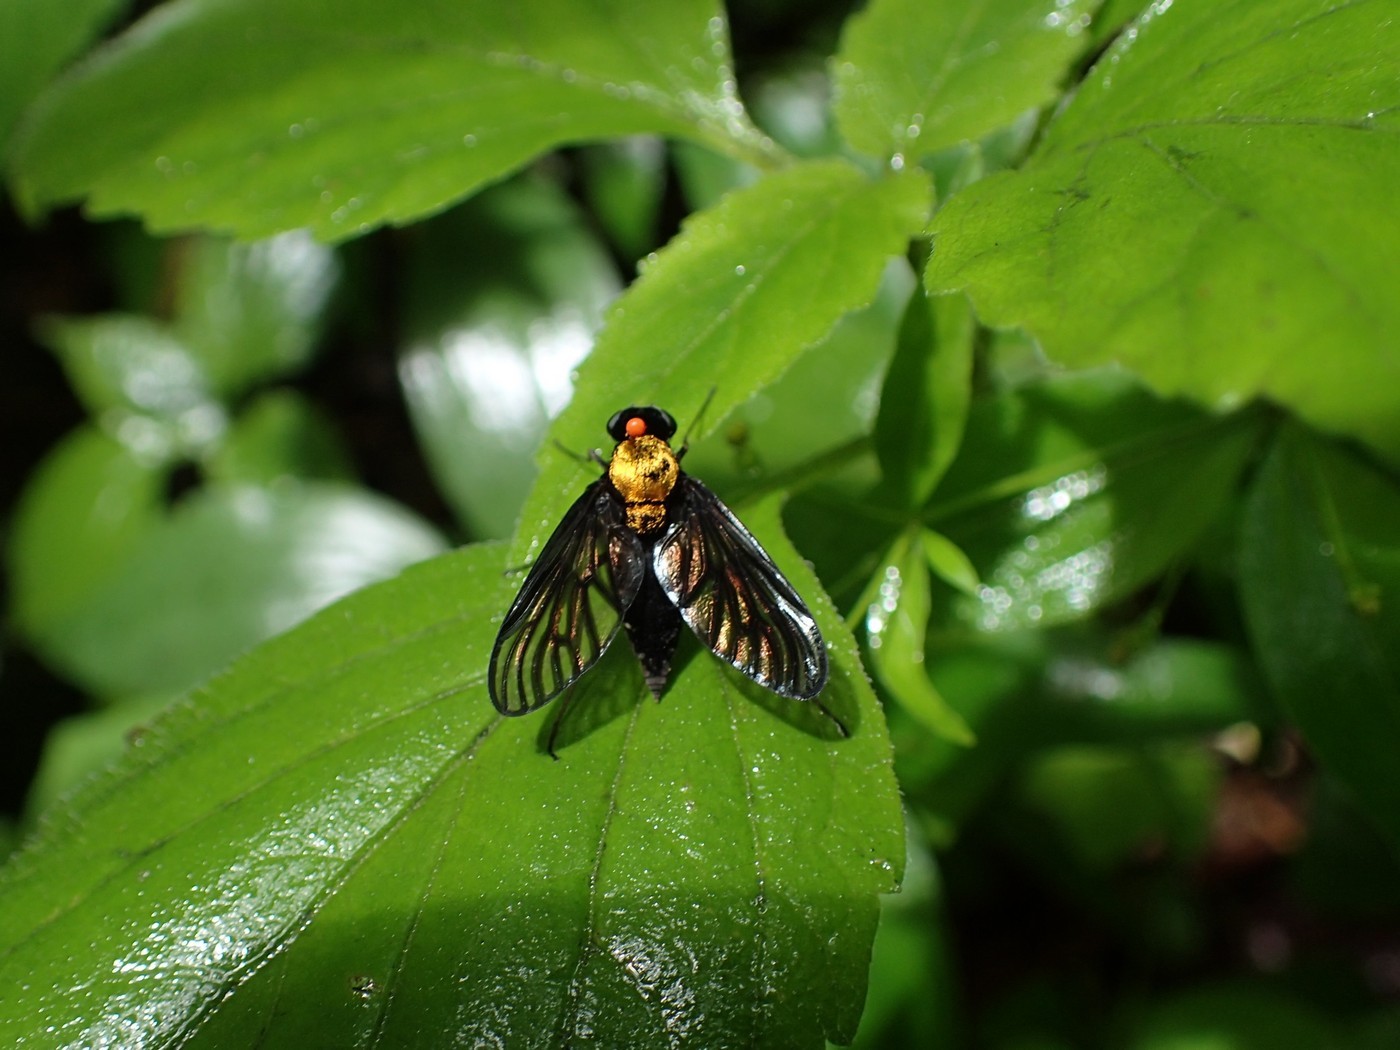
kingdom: Animalia
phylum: Arthropoda
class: Insecta
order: Diptera
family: Rhagionidae
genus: Chrysopilus
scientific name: Chrysopilus davisi
